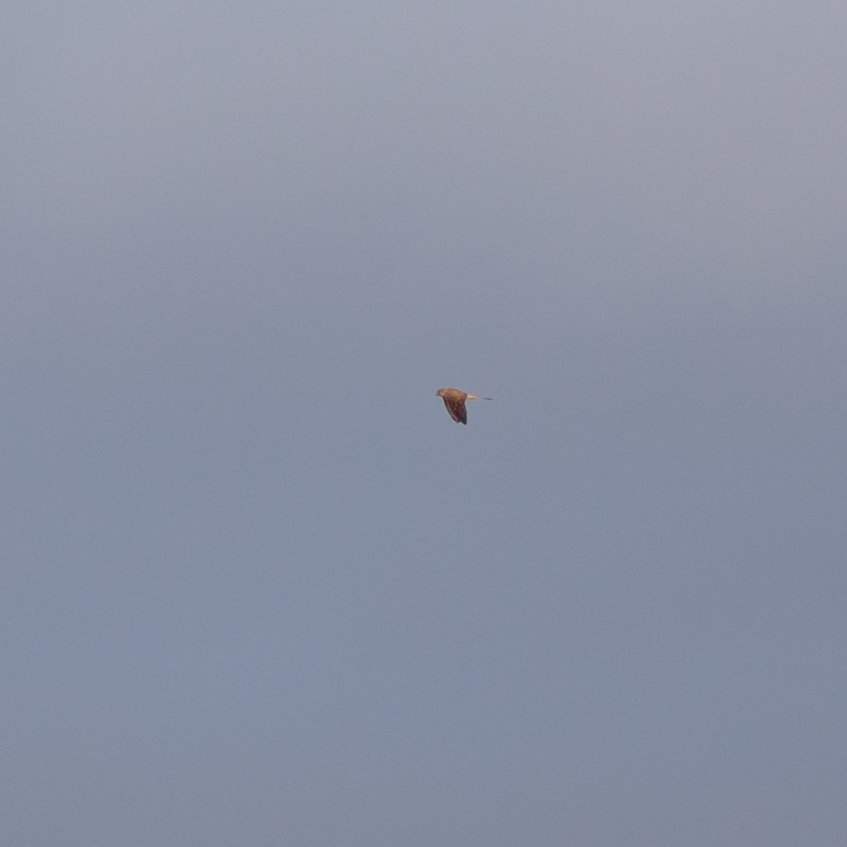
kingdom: Animalia
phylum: Chordata
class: Aves
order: Falconiformes
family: Falconidae
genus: Falco
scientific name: Falco tinnunculus
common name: Common kestrel
